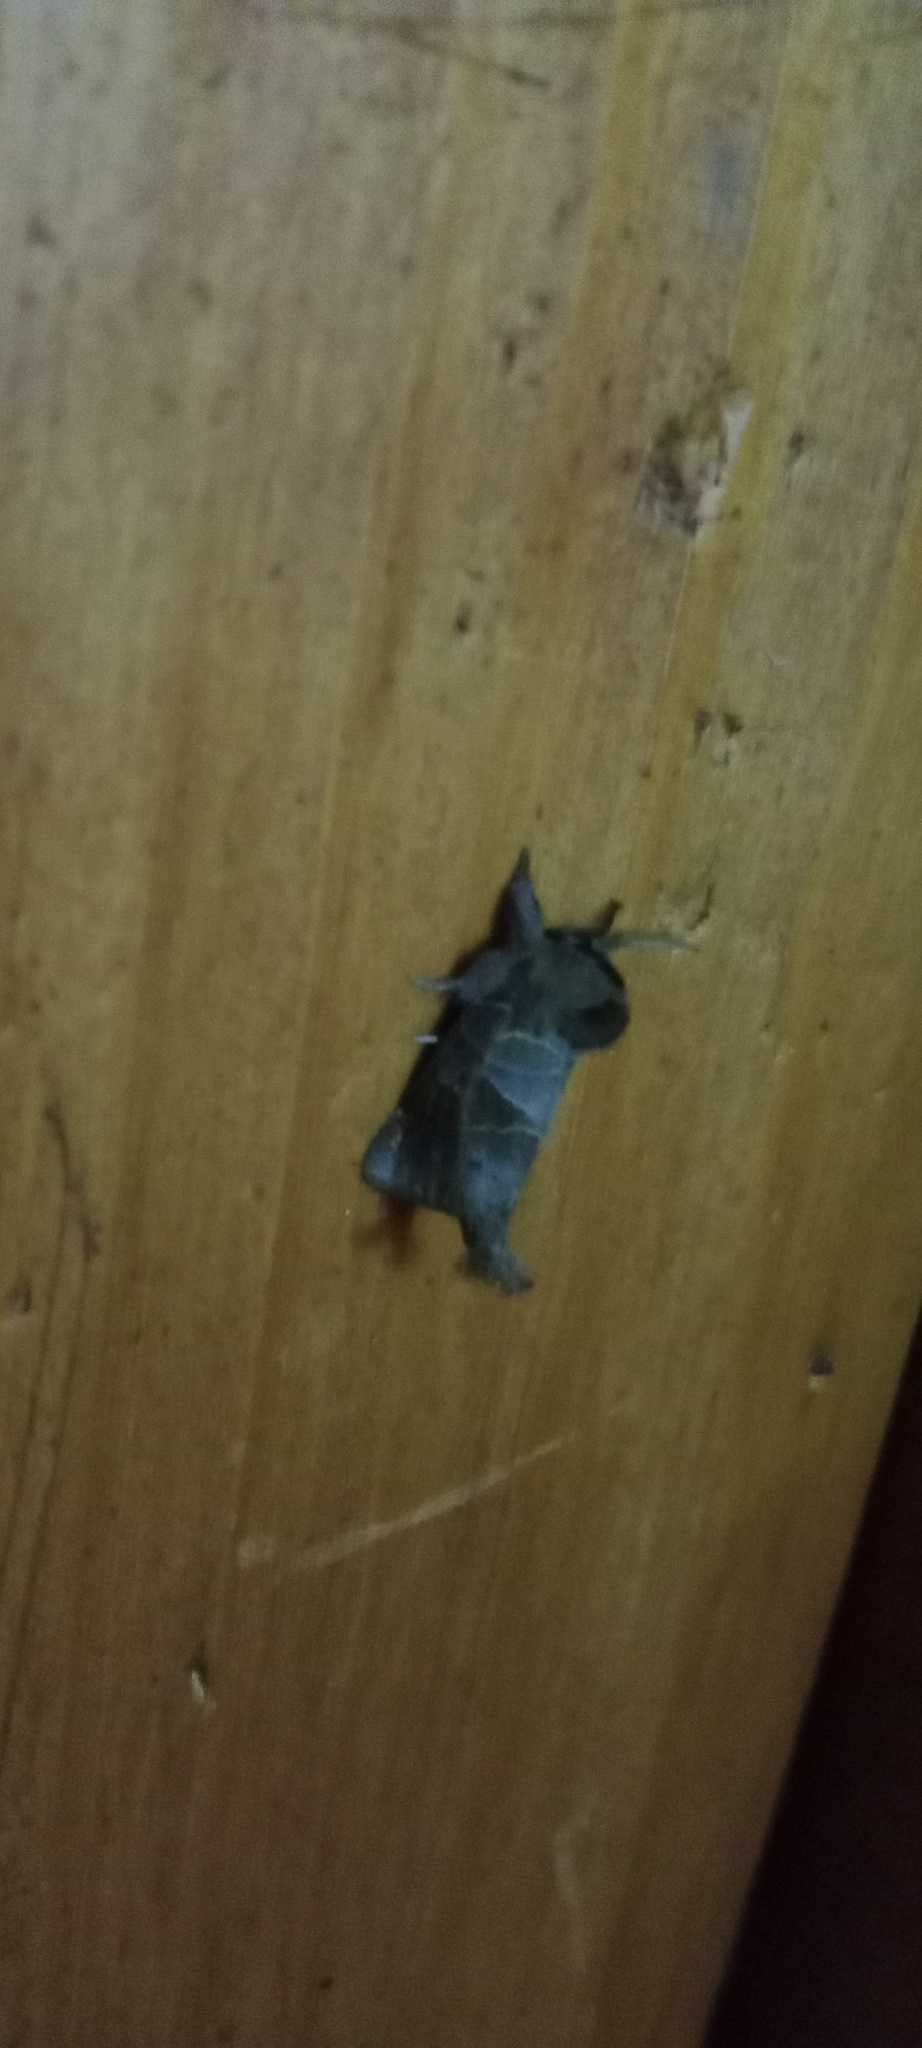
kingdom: Animalia
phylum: Arthropoda
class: Insecta
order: Lepidoptera
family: Notodontidae
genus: Clostera
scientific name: Clostera pigra
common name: Small chocolate-tip
